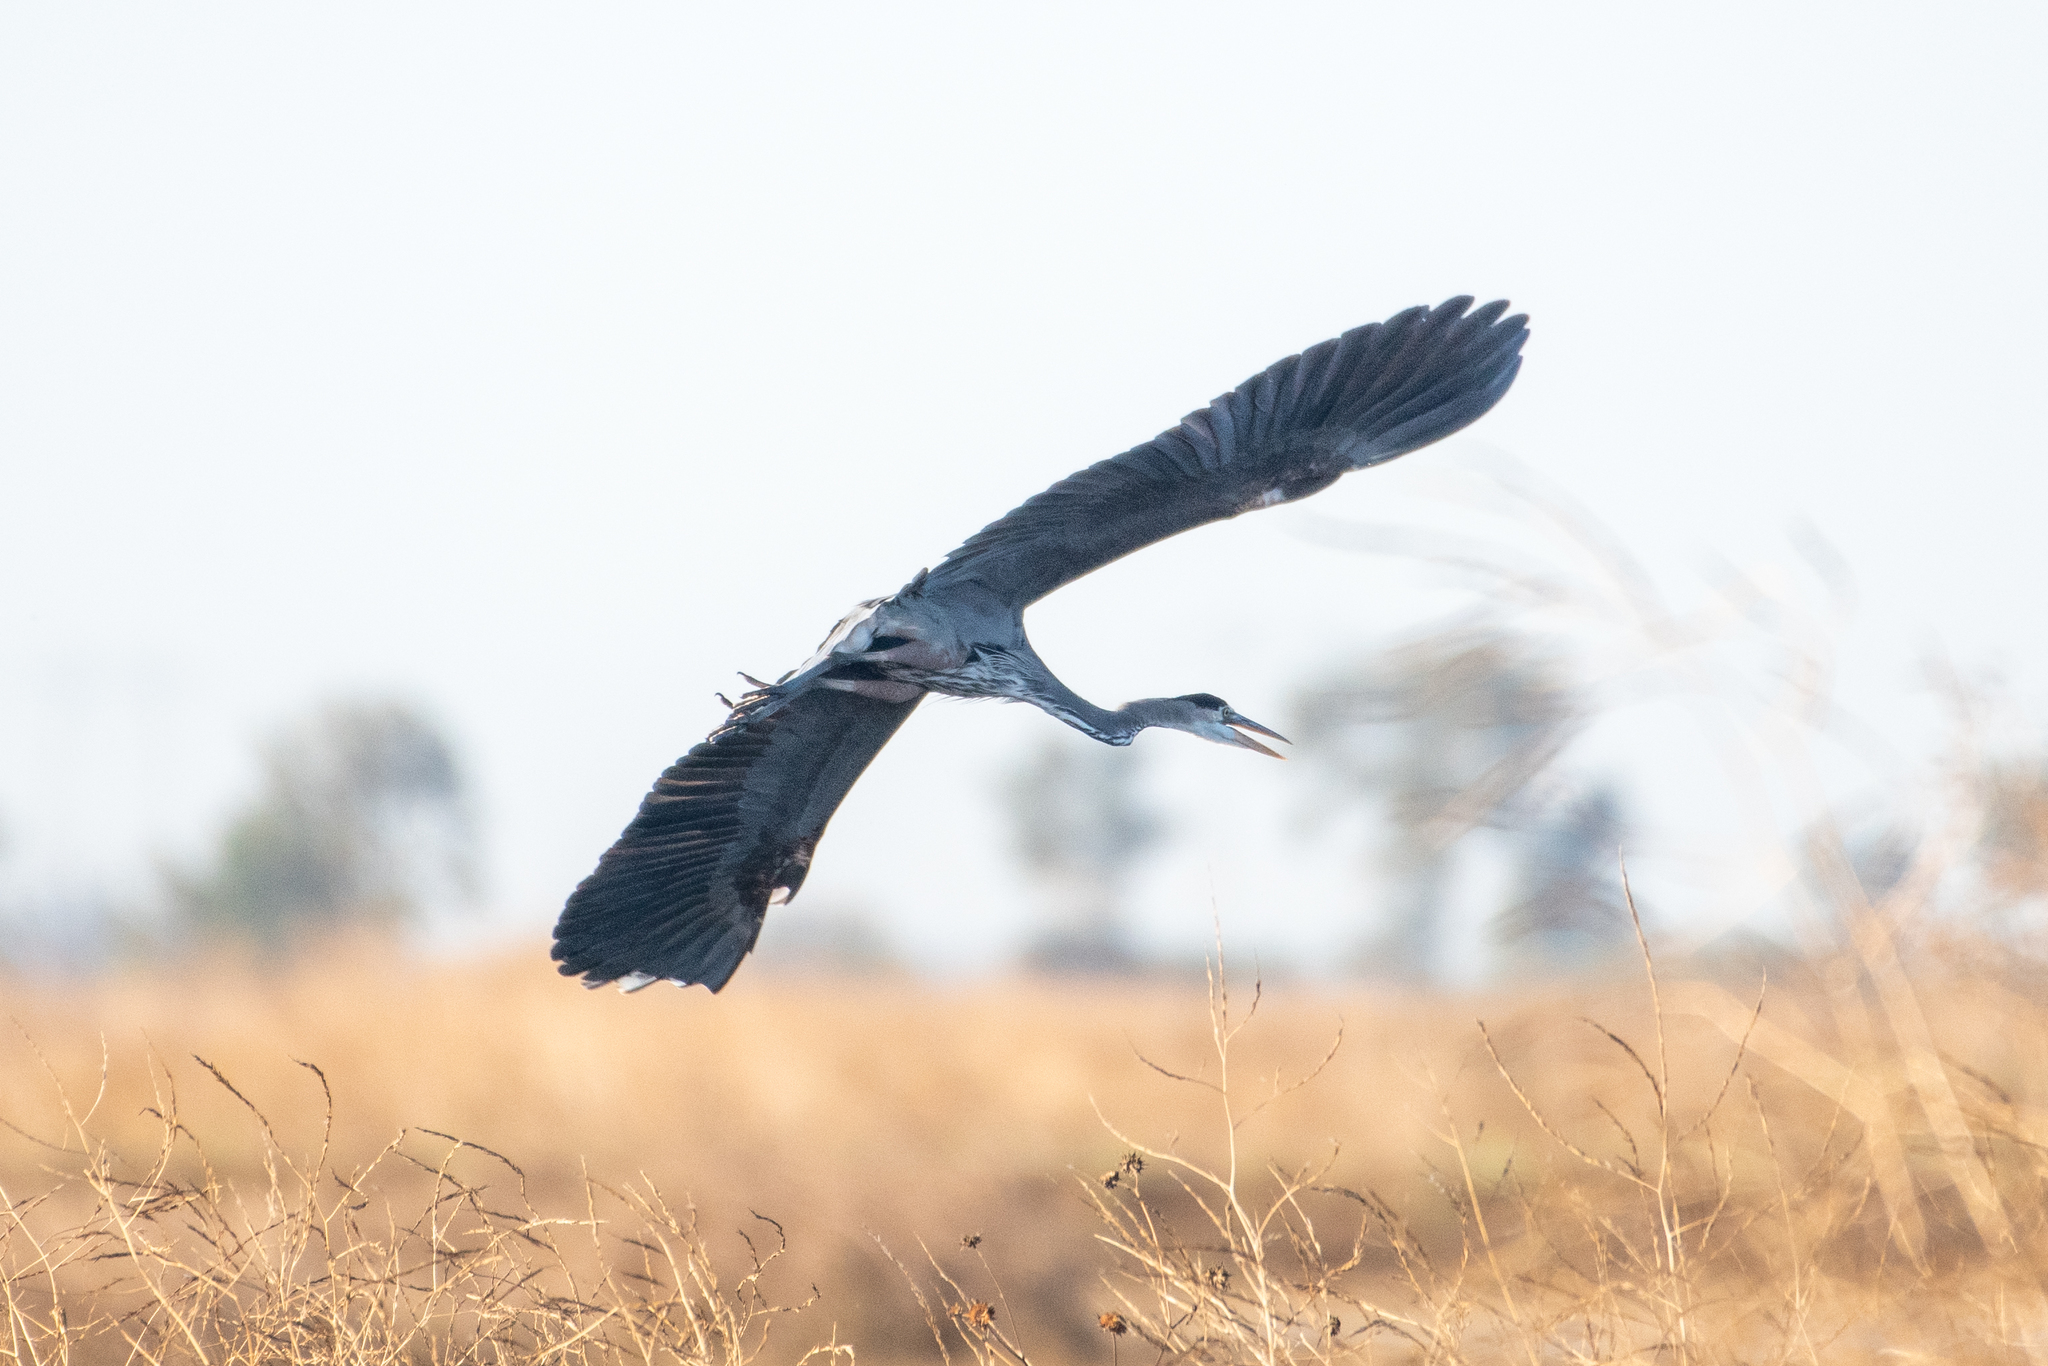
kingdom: Animalia
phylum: Chordata
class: Aves
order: Pelecaniformes
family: Ardeidae
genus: Ardea
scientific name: Ardea herodias
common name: Great blue heron
